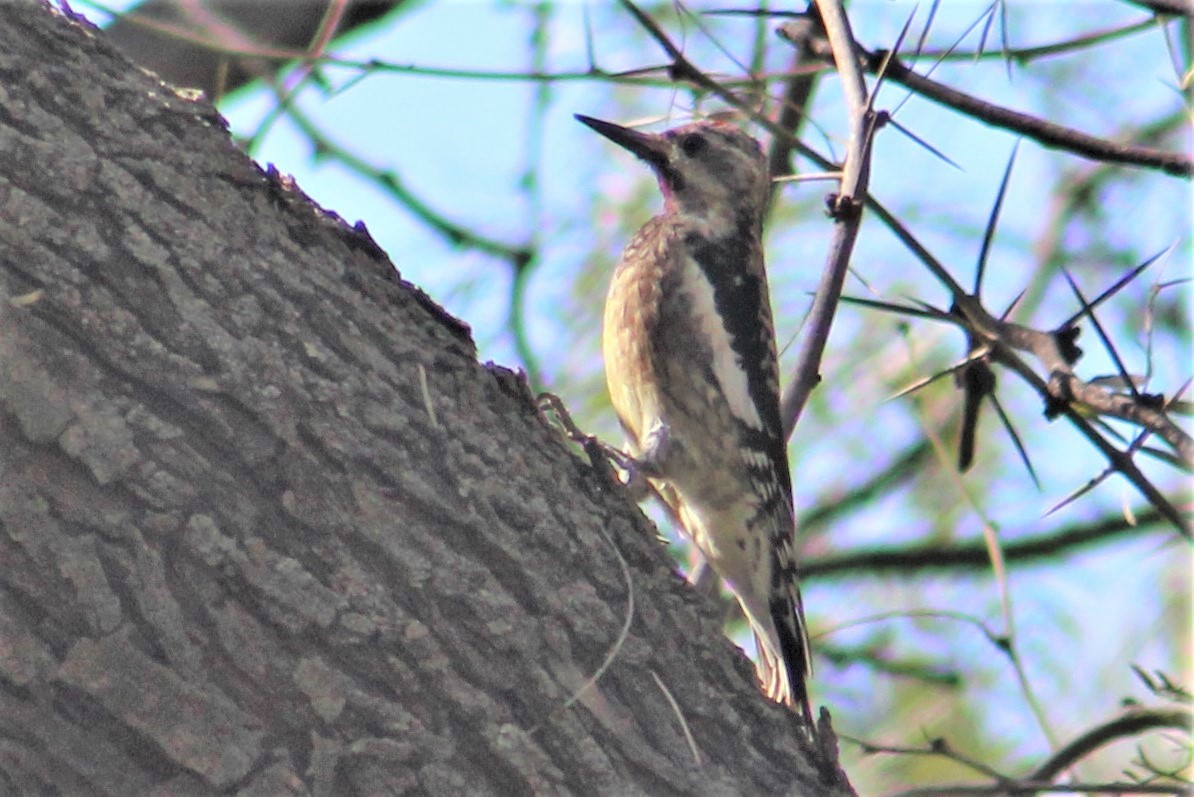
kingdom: Animalia
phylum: Chordata
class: Aves
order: Piciformes
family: Picidae
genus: Sphyrapicus
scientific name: Sphyrapicus varius
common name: Yellow-bellied sapsucker
